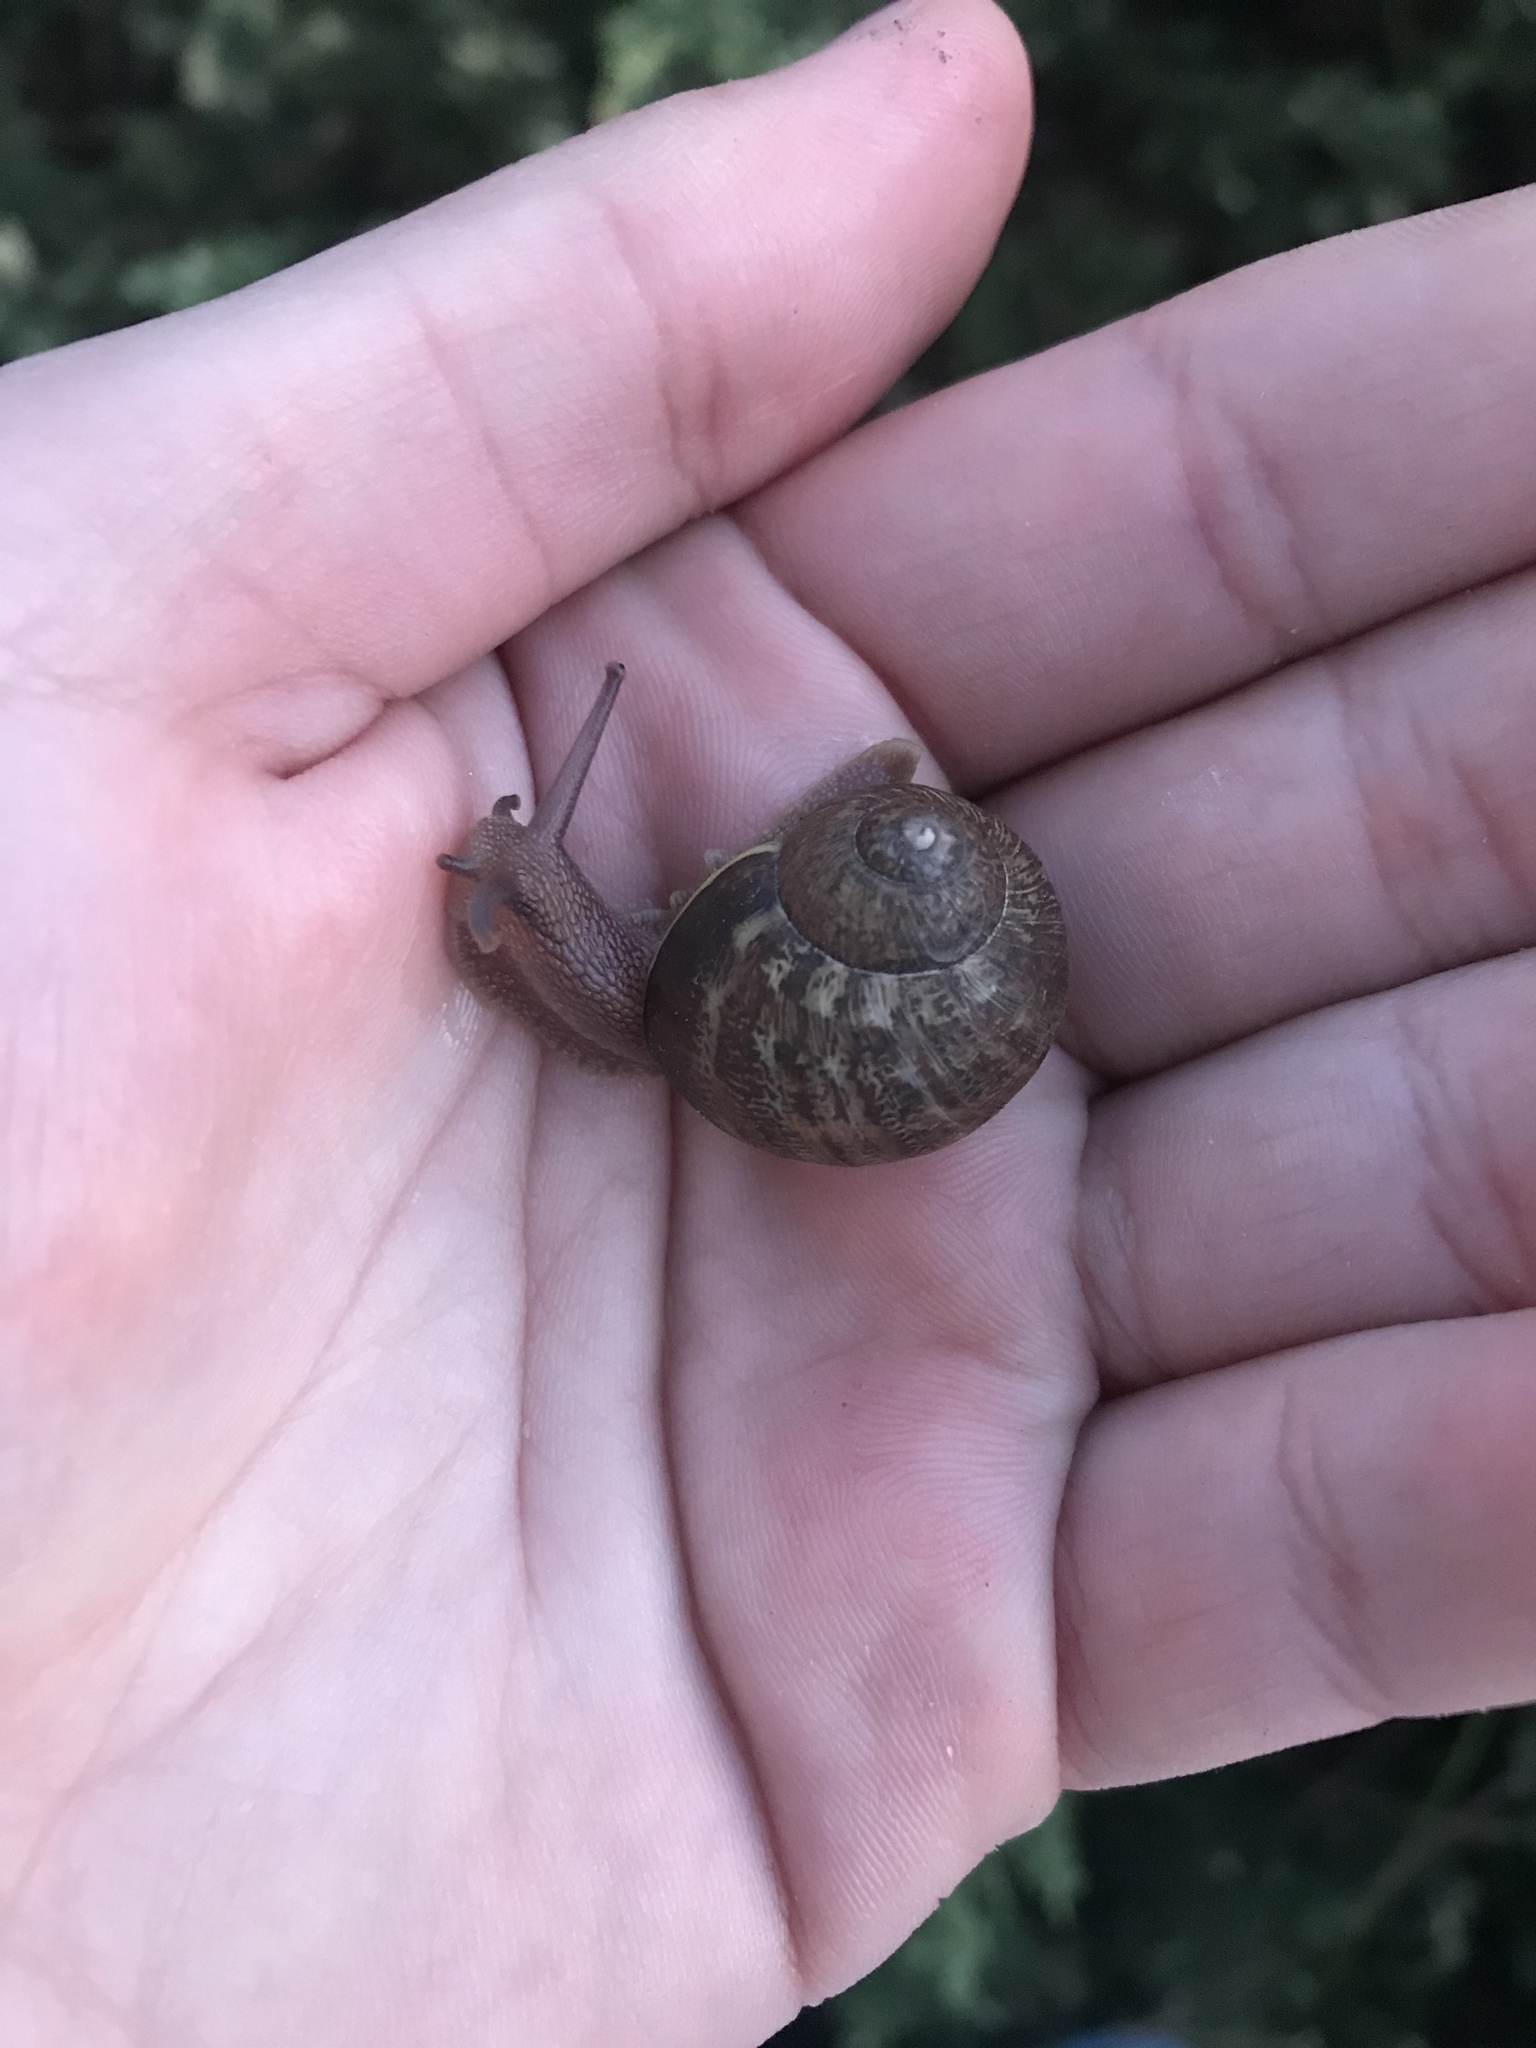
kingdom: Animalia
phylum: Mollusca
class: Gastropoda
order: Stylommatophora
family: Helicidae
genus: Cornu
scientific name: Cornu aspersum
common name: Brown garden snail
